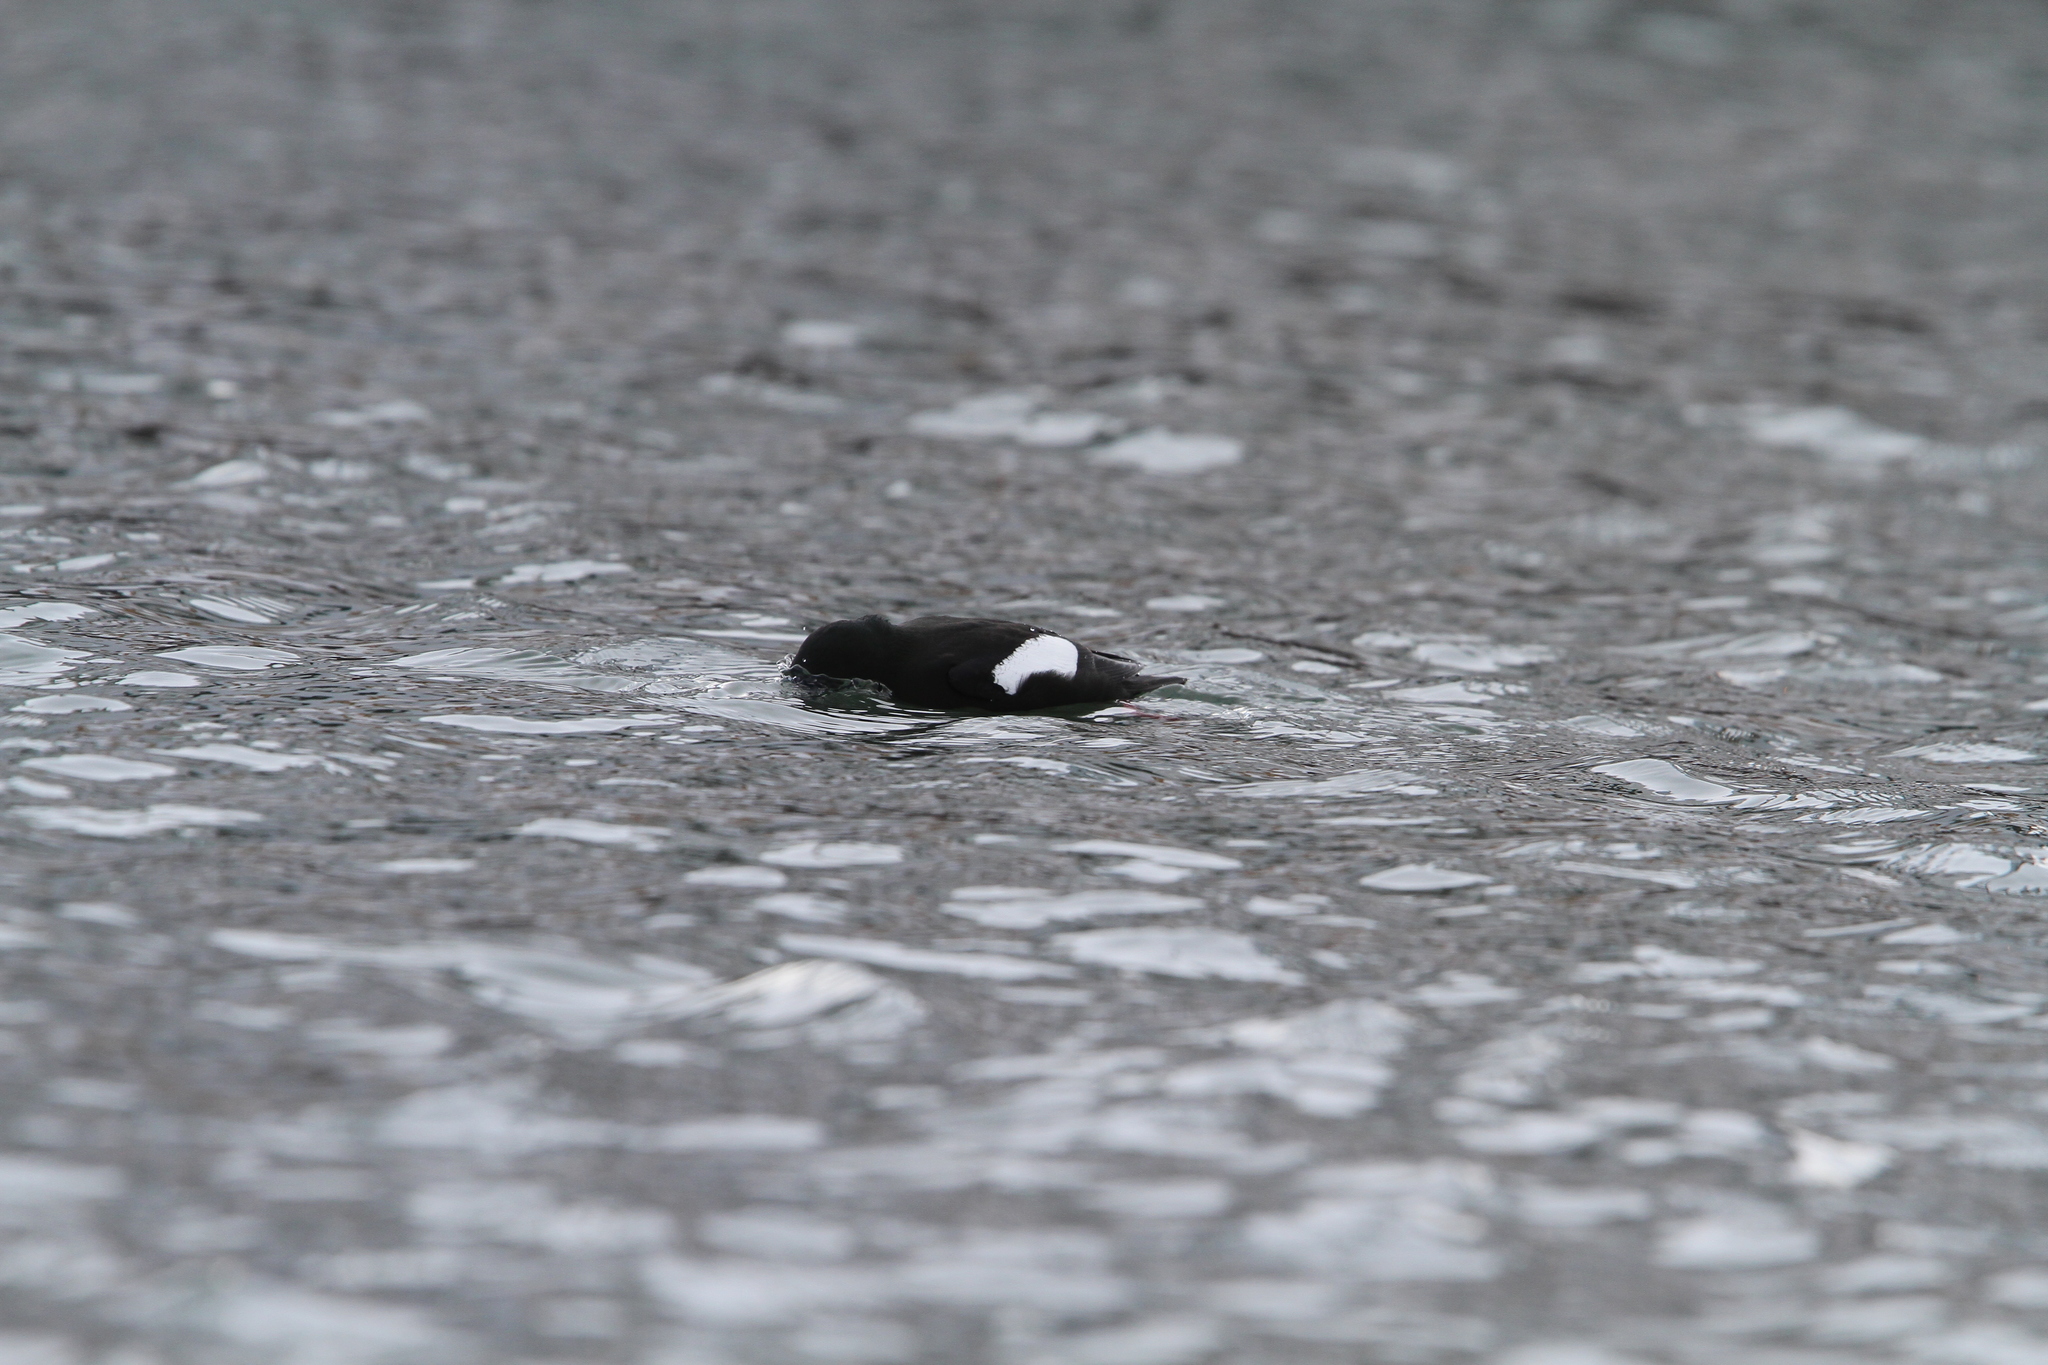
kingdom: Animalia
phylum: Chordata
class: Aves
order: Charadriiformes
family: Alcidae
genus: Cepphus
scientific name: Cepphus grylle
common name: Black guillemot
